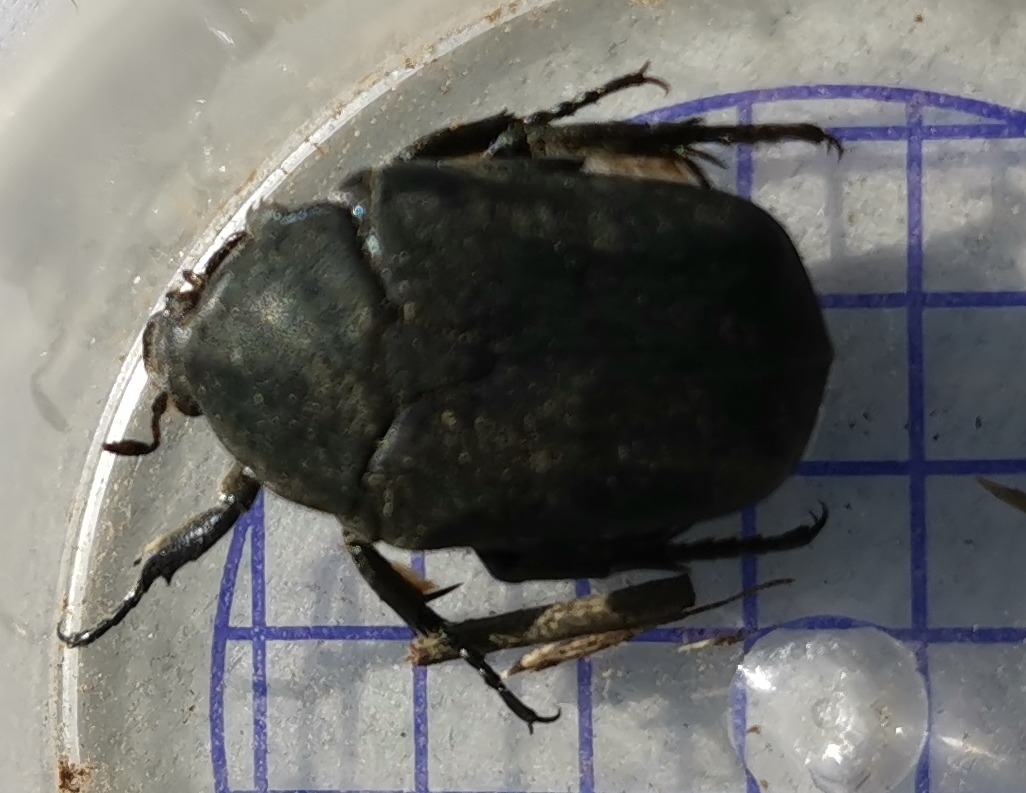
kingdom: Animalia
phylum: Arthropoda
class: Insecta
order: Coleoptera
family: Scarabaeidae
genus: Protaetia
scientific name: Protaetia morio
